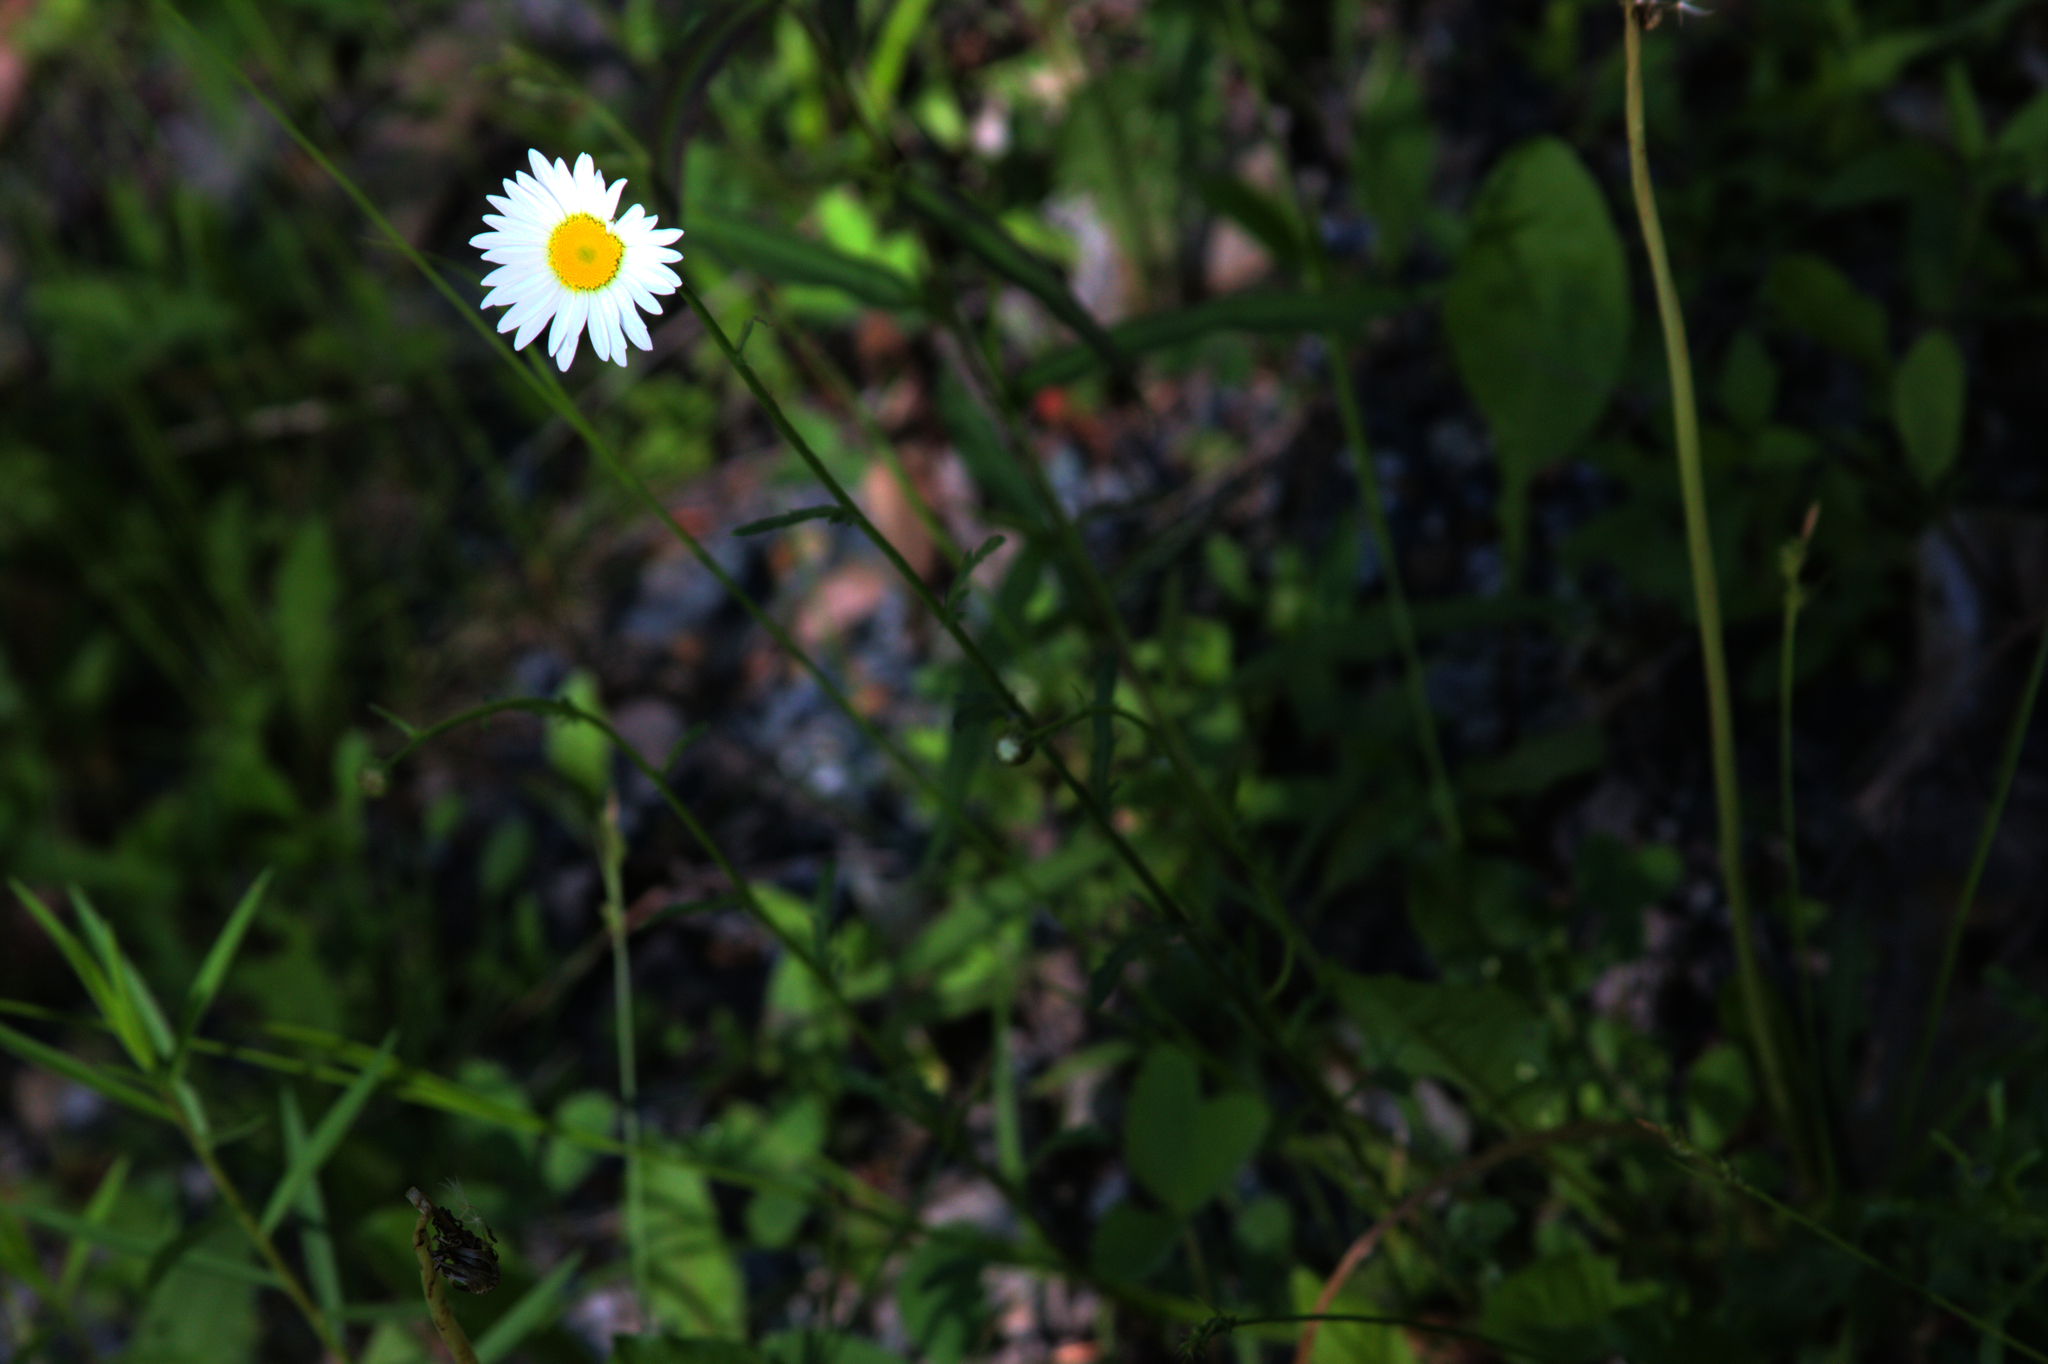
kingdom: Plantae
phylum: Tracheophyta
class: Magnoliopsida
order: Asterales
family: Asteraceae
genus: Leucanthemum
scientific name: Leucanthemum vulgare
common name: Oxeye daisy
